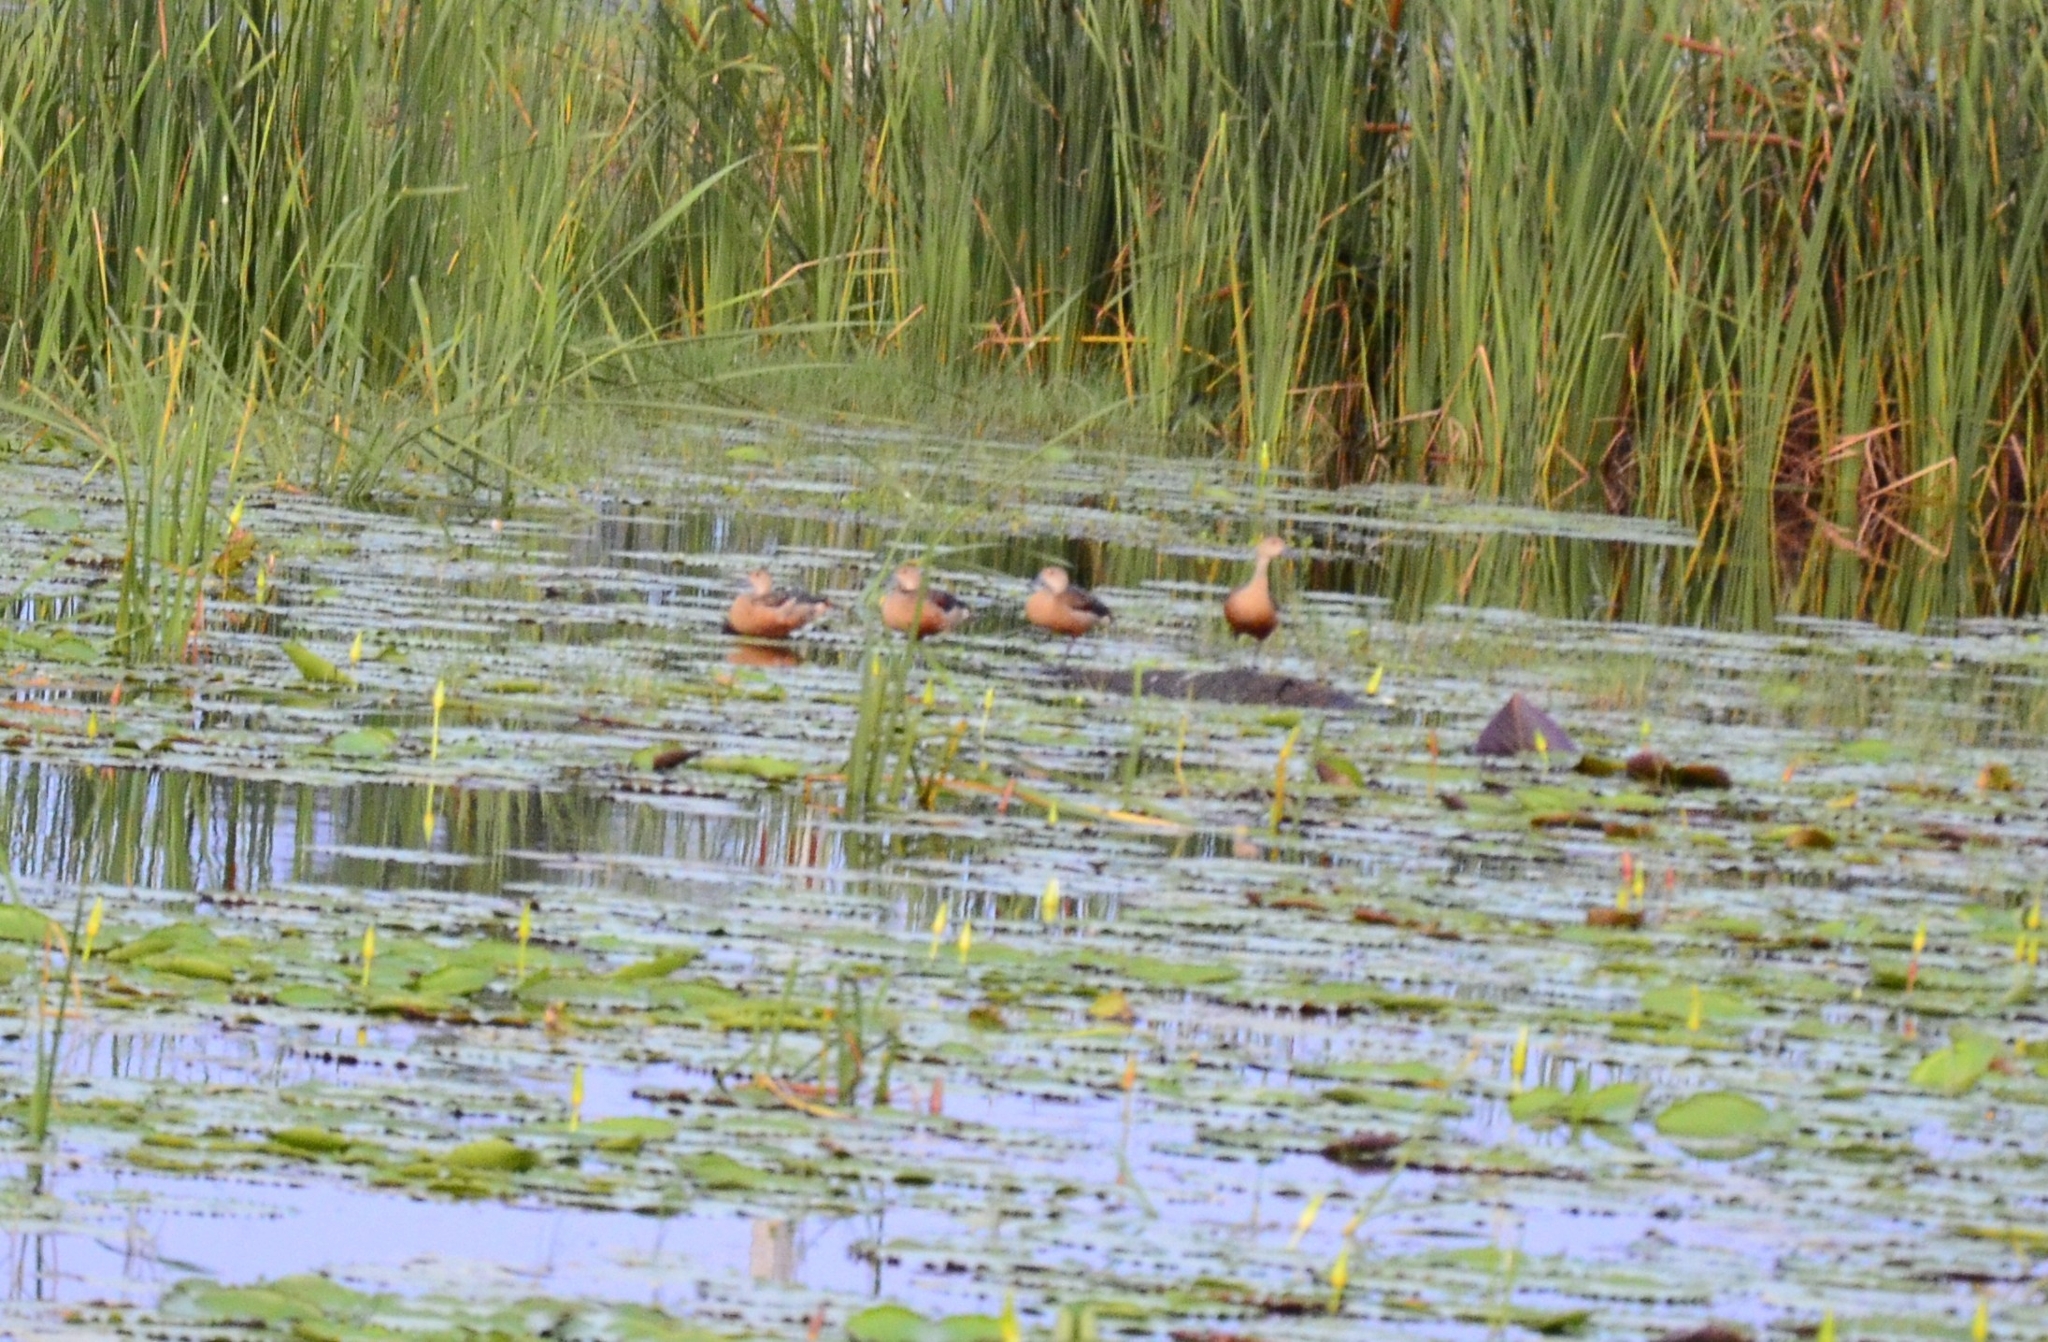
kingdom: Animalia
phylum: Chordata
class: Aves
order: Anseriformes
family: Anatidae
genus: Dendrocygna
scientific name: Dendrocygna javanica
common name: Lesser whistling-duck
